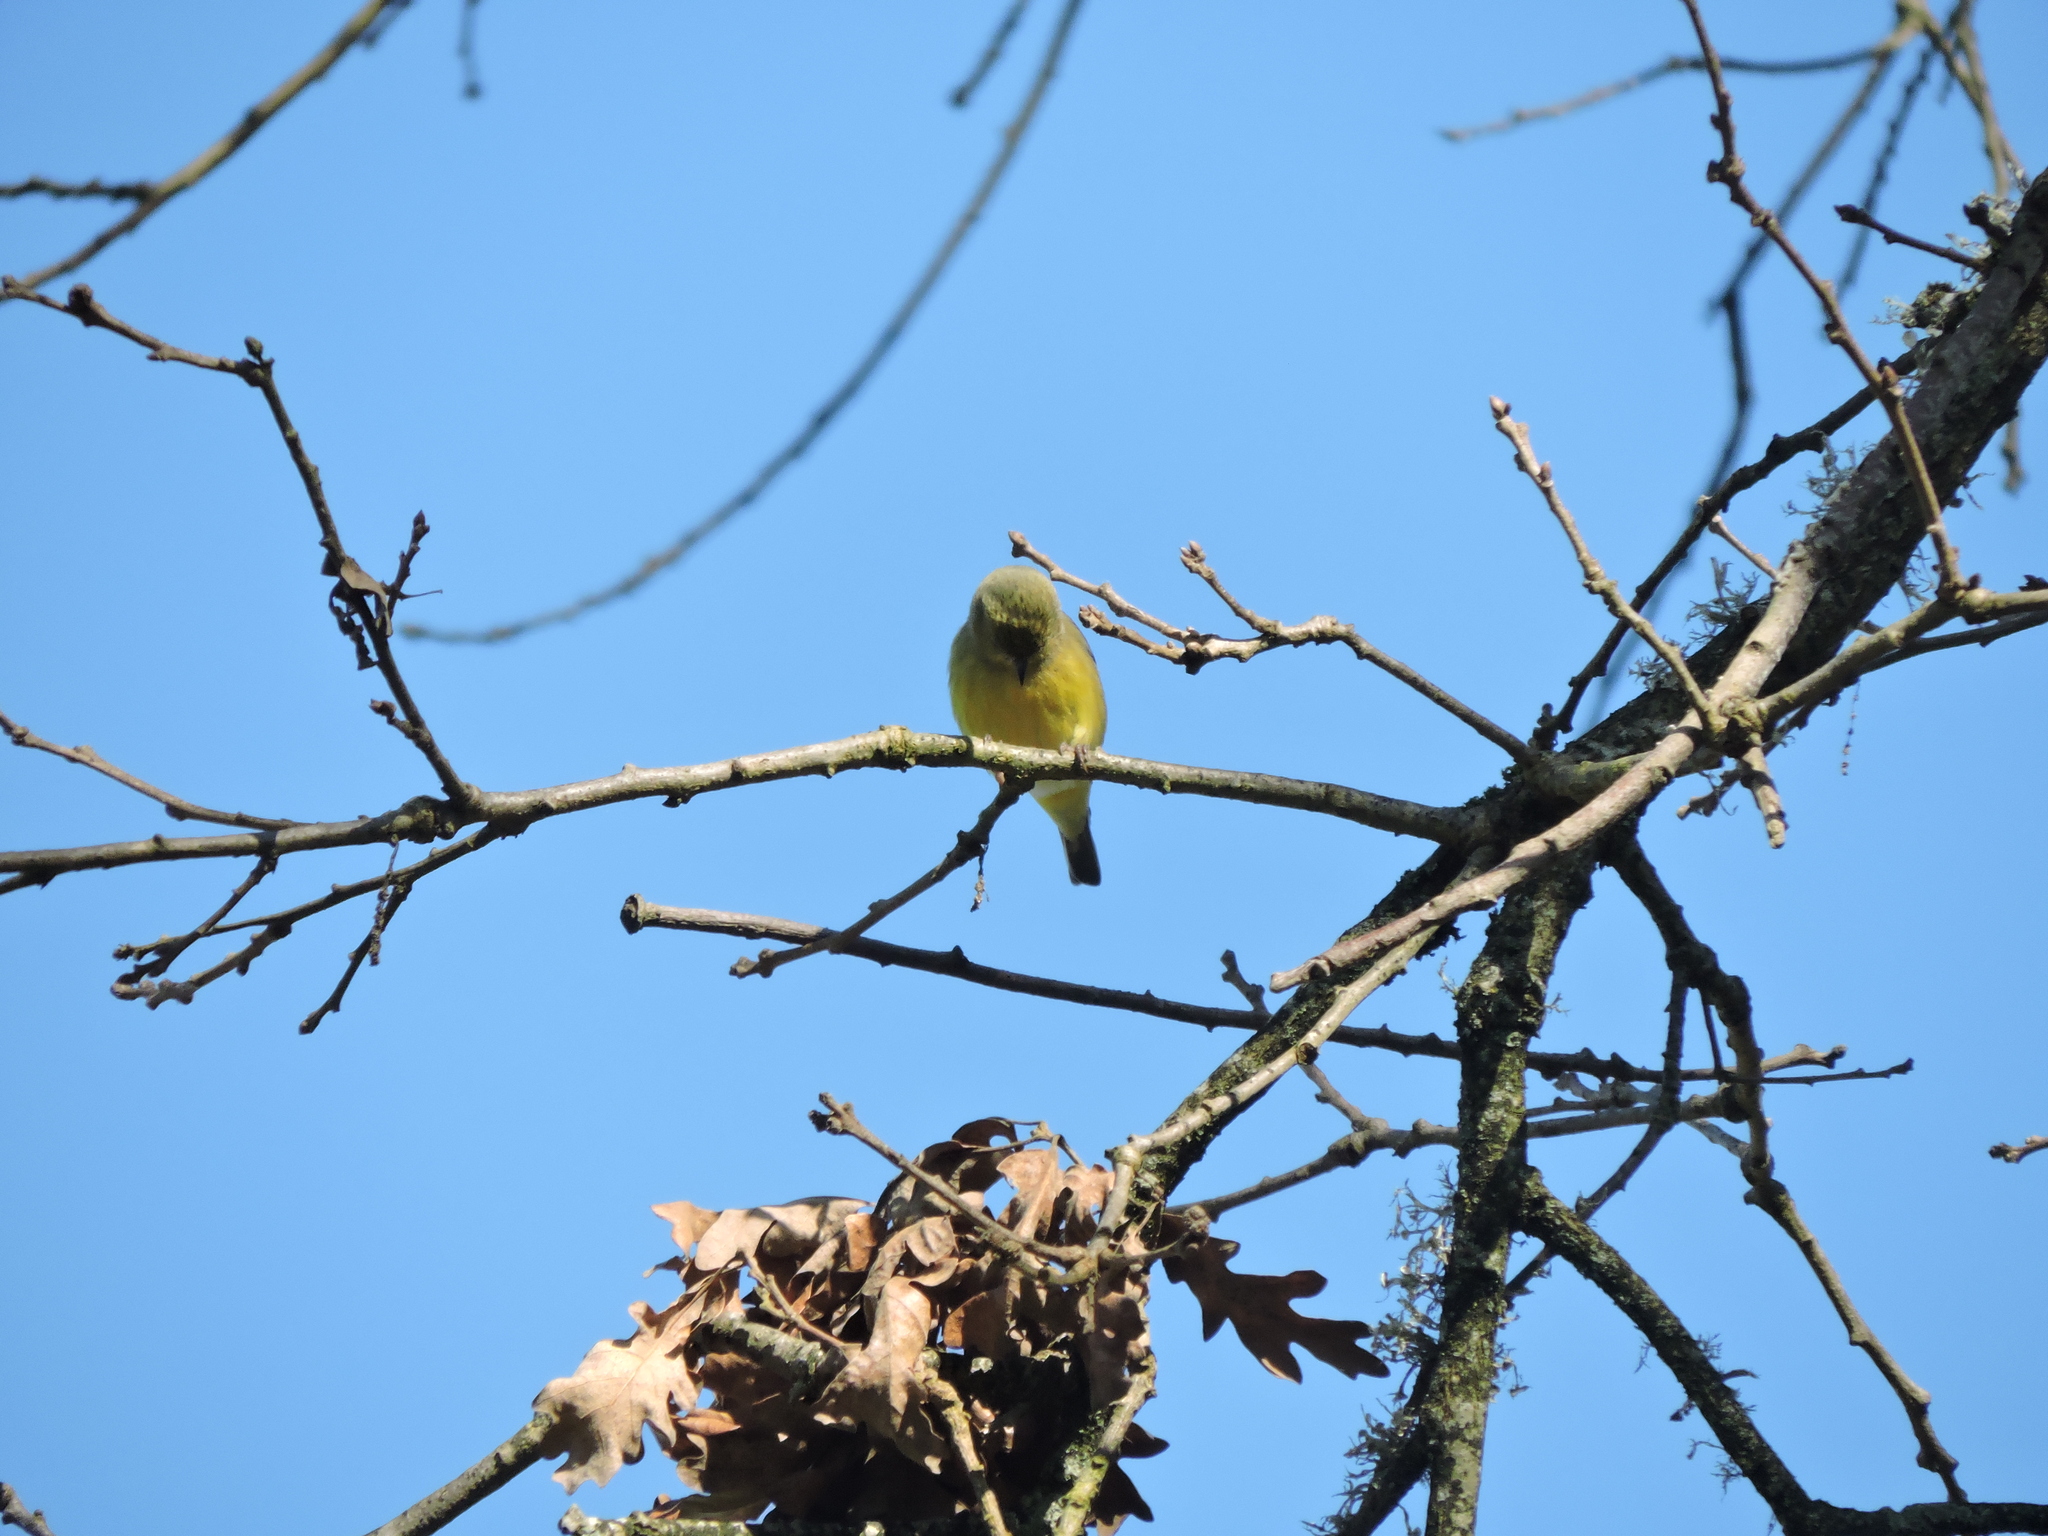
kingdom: Animalia
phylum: Chordata
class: Aves
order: Passeriformes
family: Fringillidae
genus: Spinus
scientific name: Spinus psaltria
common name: Lesser goldfinch
